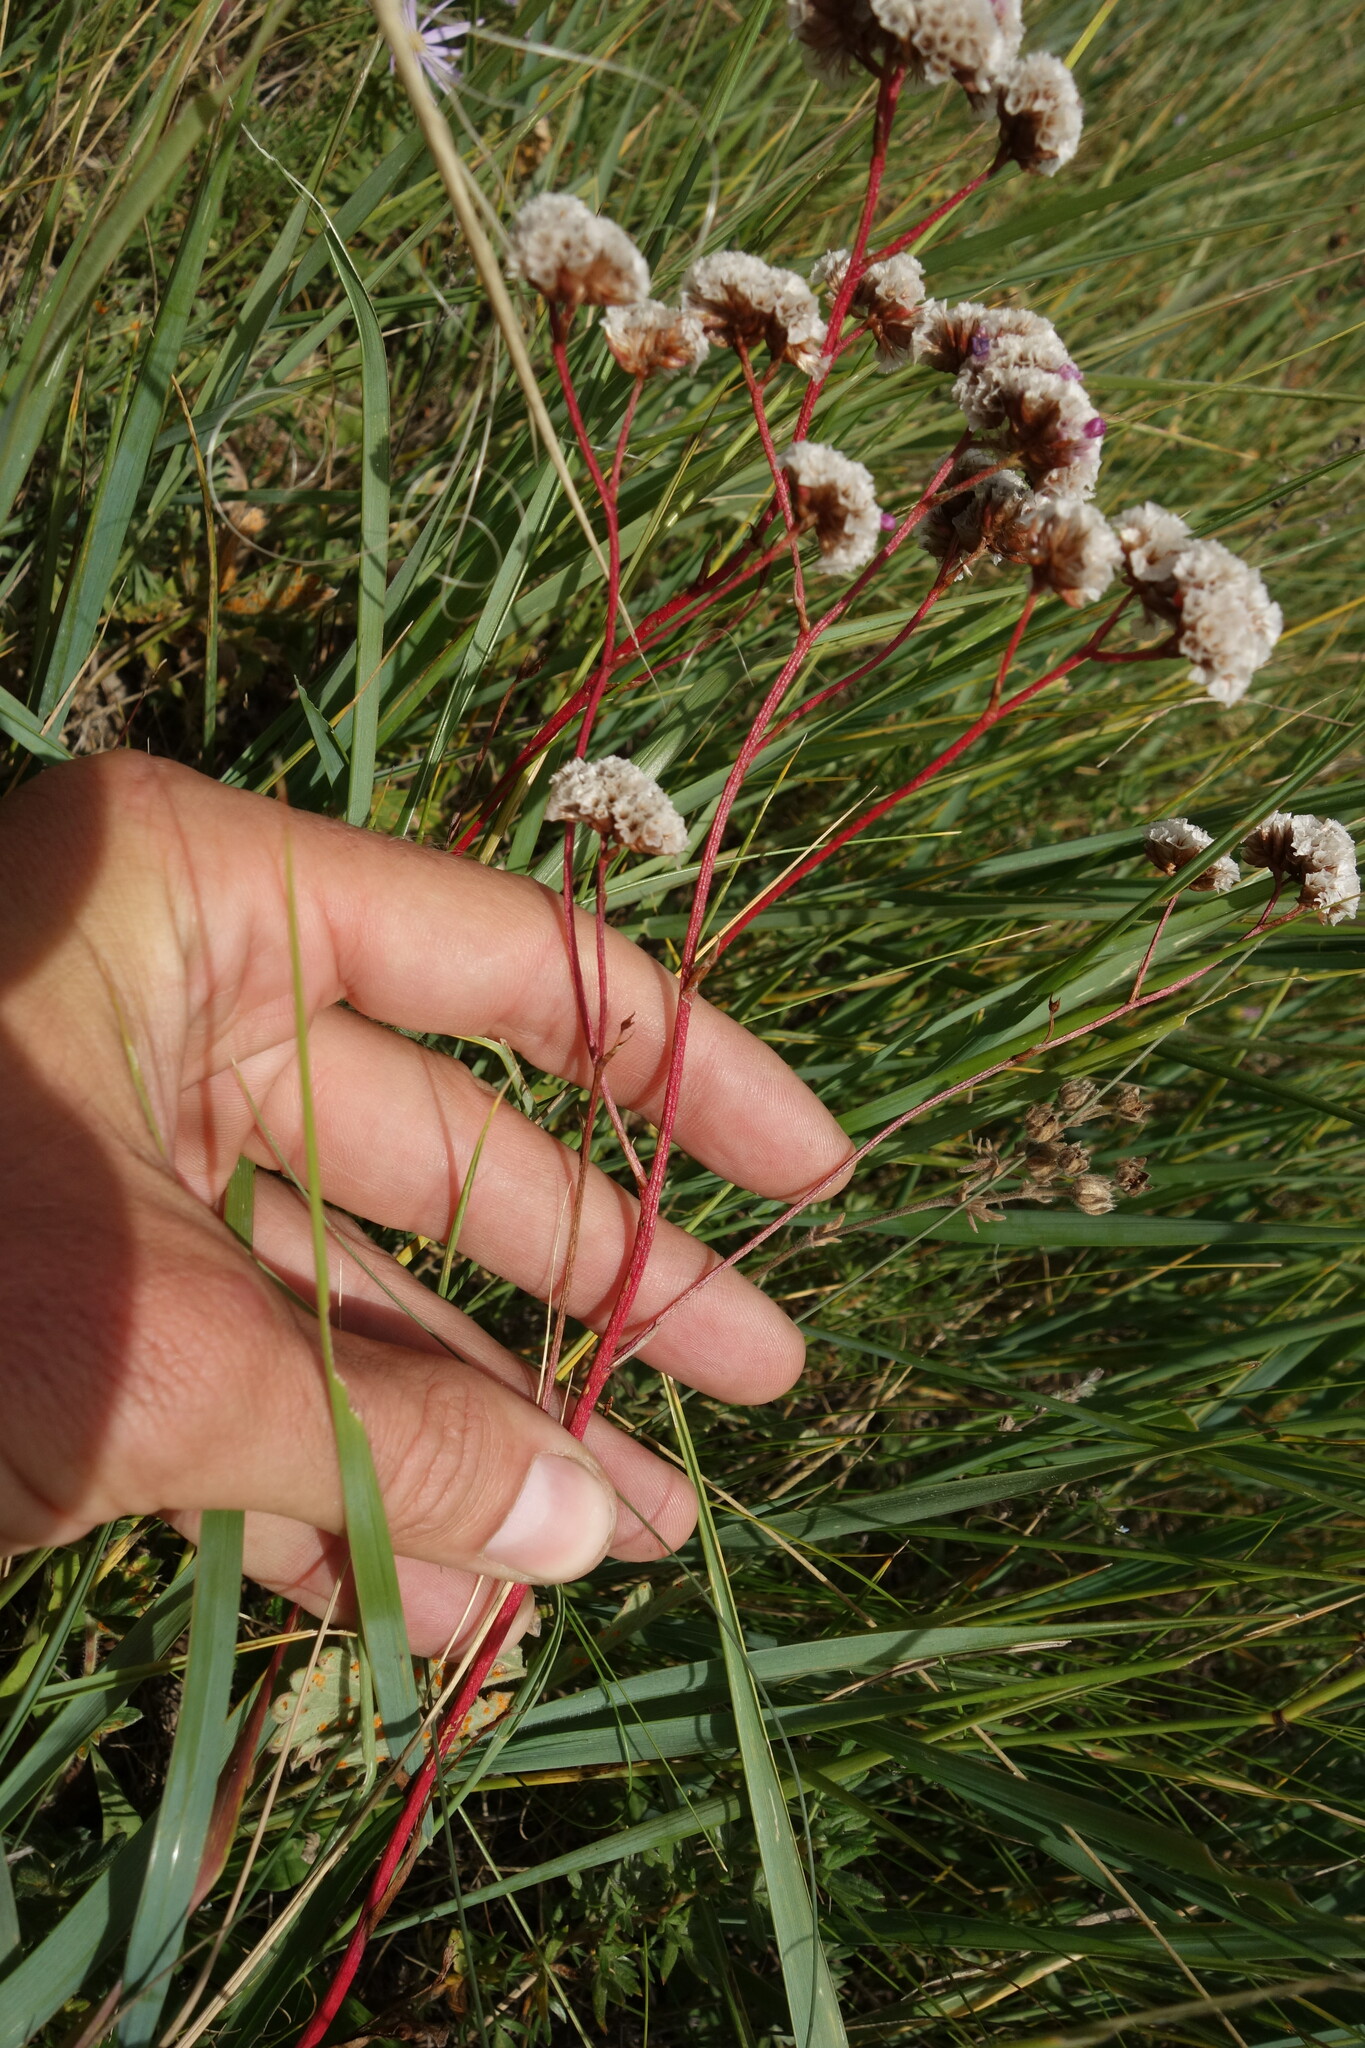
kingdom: Plantae
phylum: Tracheophyta
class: Magnoliopsida
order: Caryophyllales
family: Plumbaginaceae
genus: Limonium
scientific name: Limonium flexuosum
